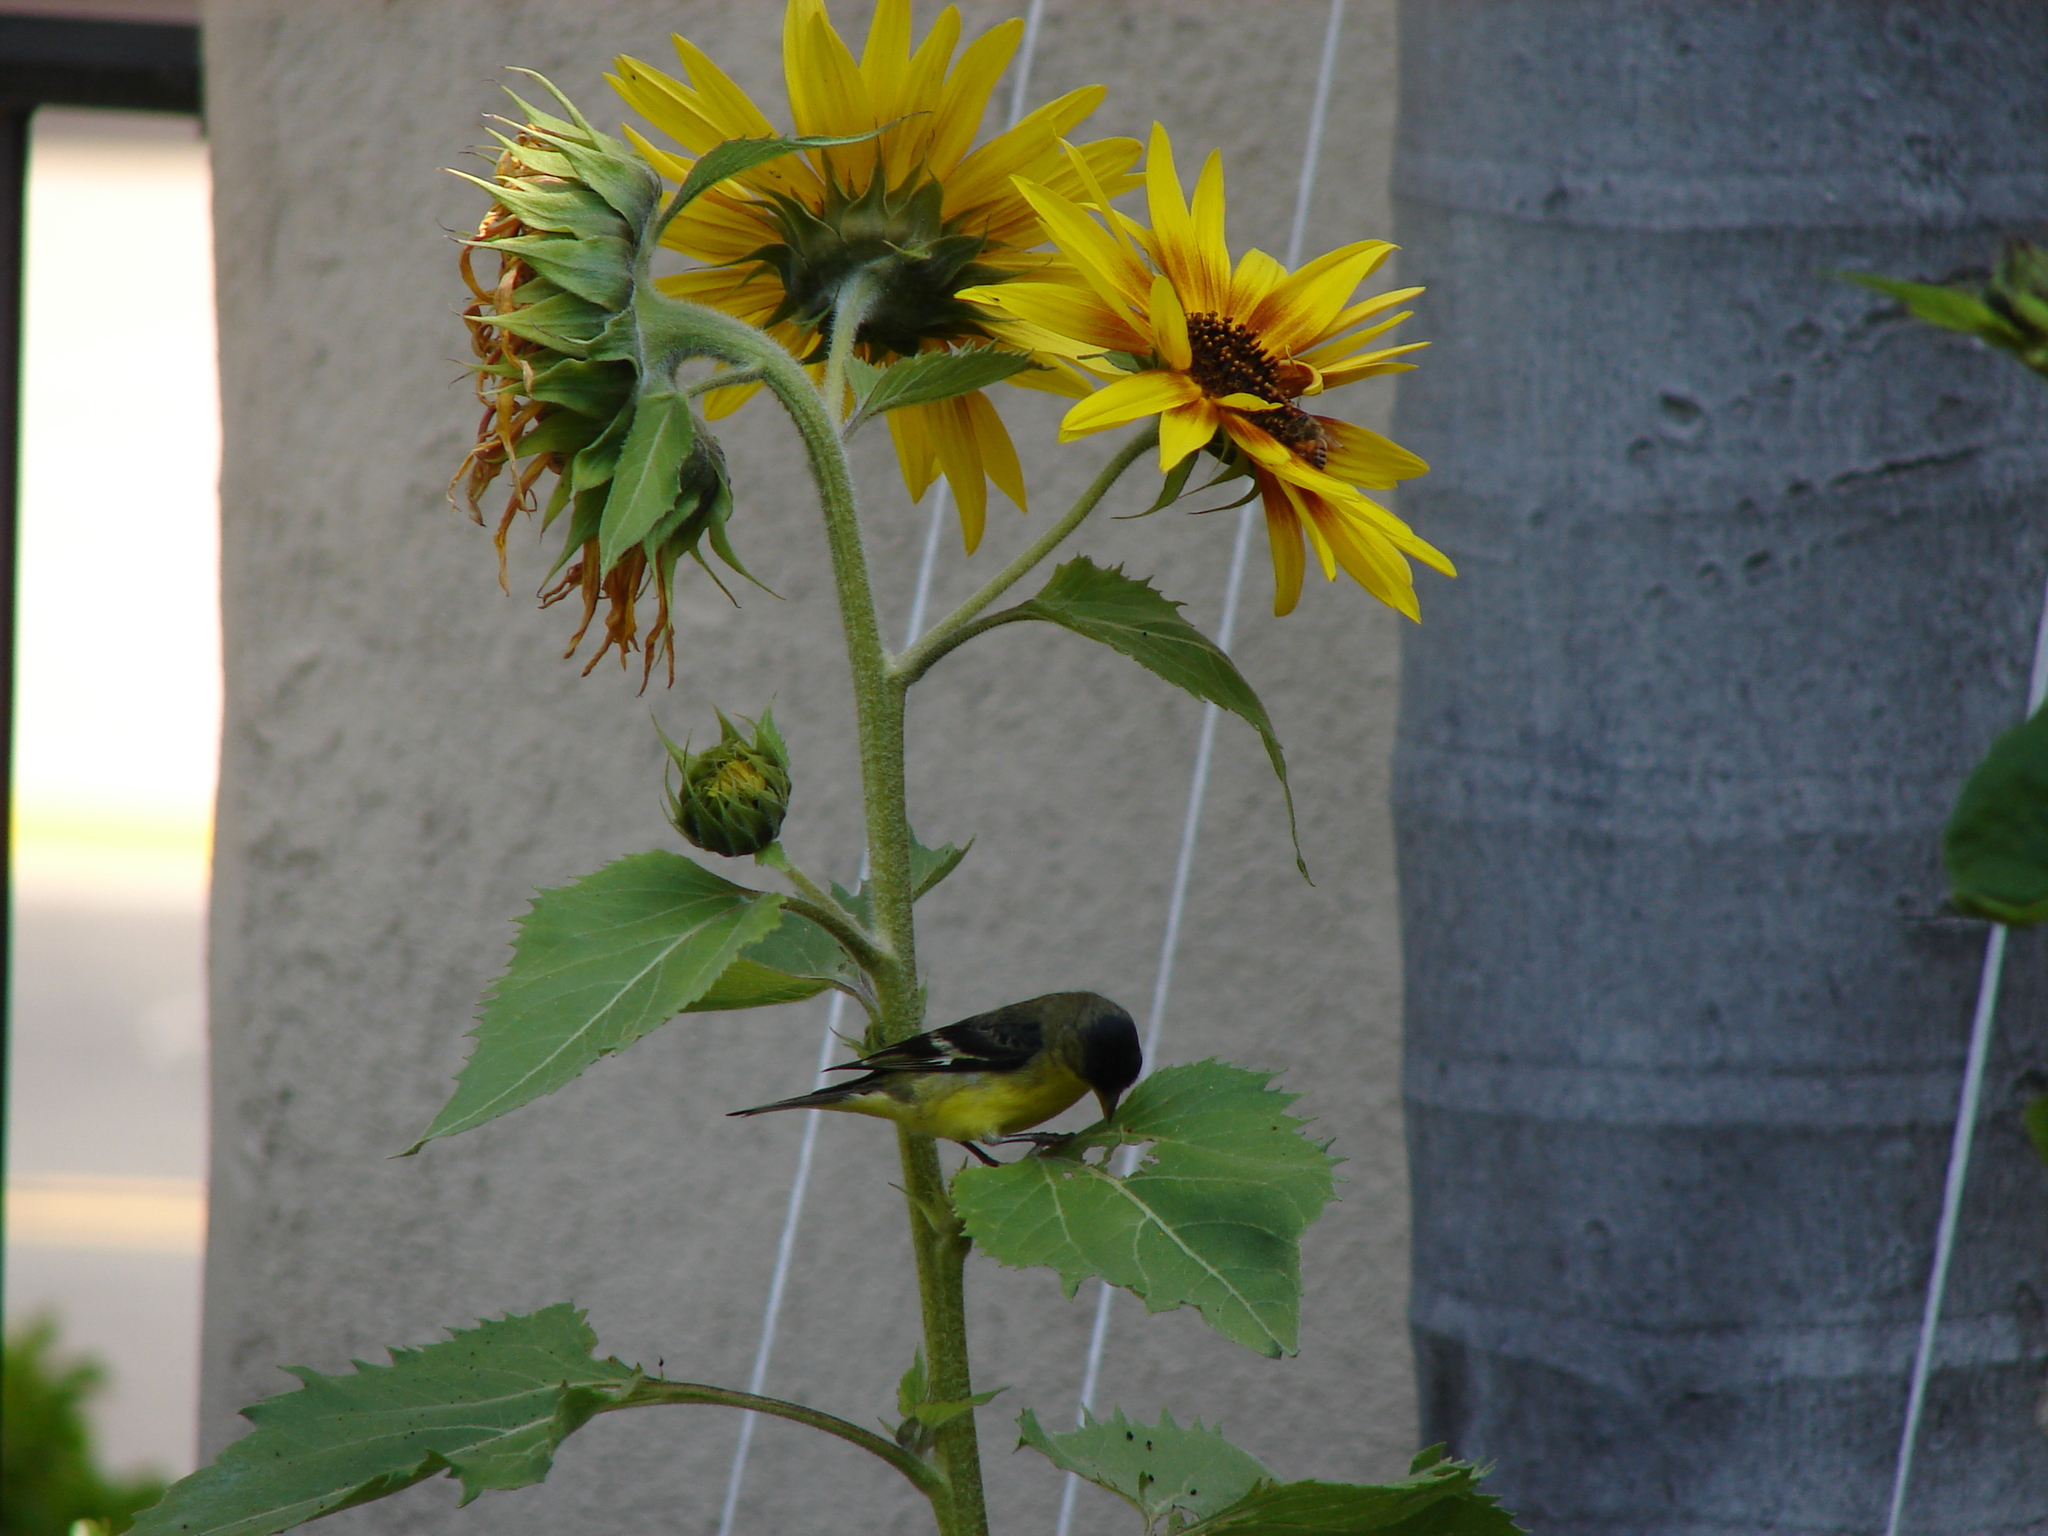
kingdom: Animalia
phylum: Chordata
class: Aves
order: Passeriformes
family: Fringillidae
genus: Spinus
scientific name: Spinus psaltria
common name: Lesser goldfinch
